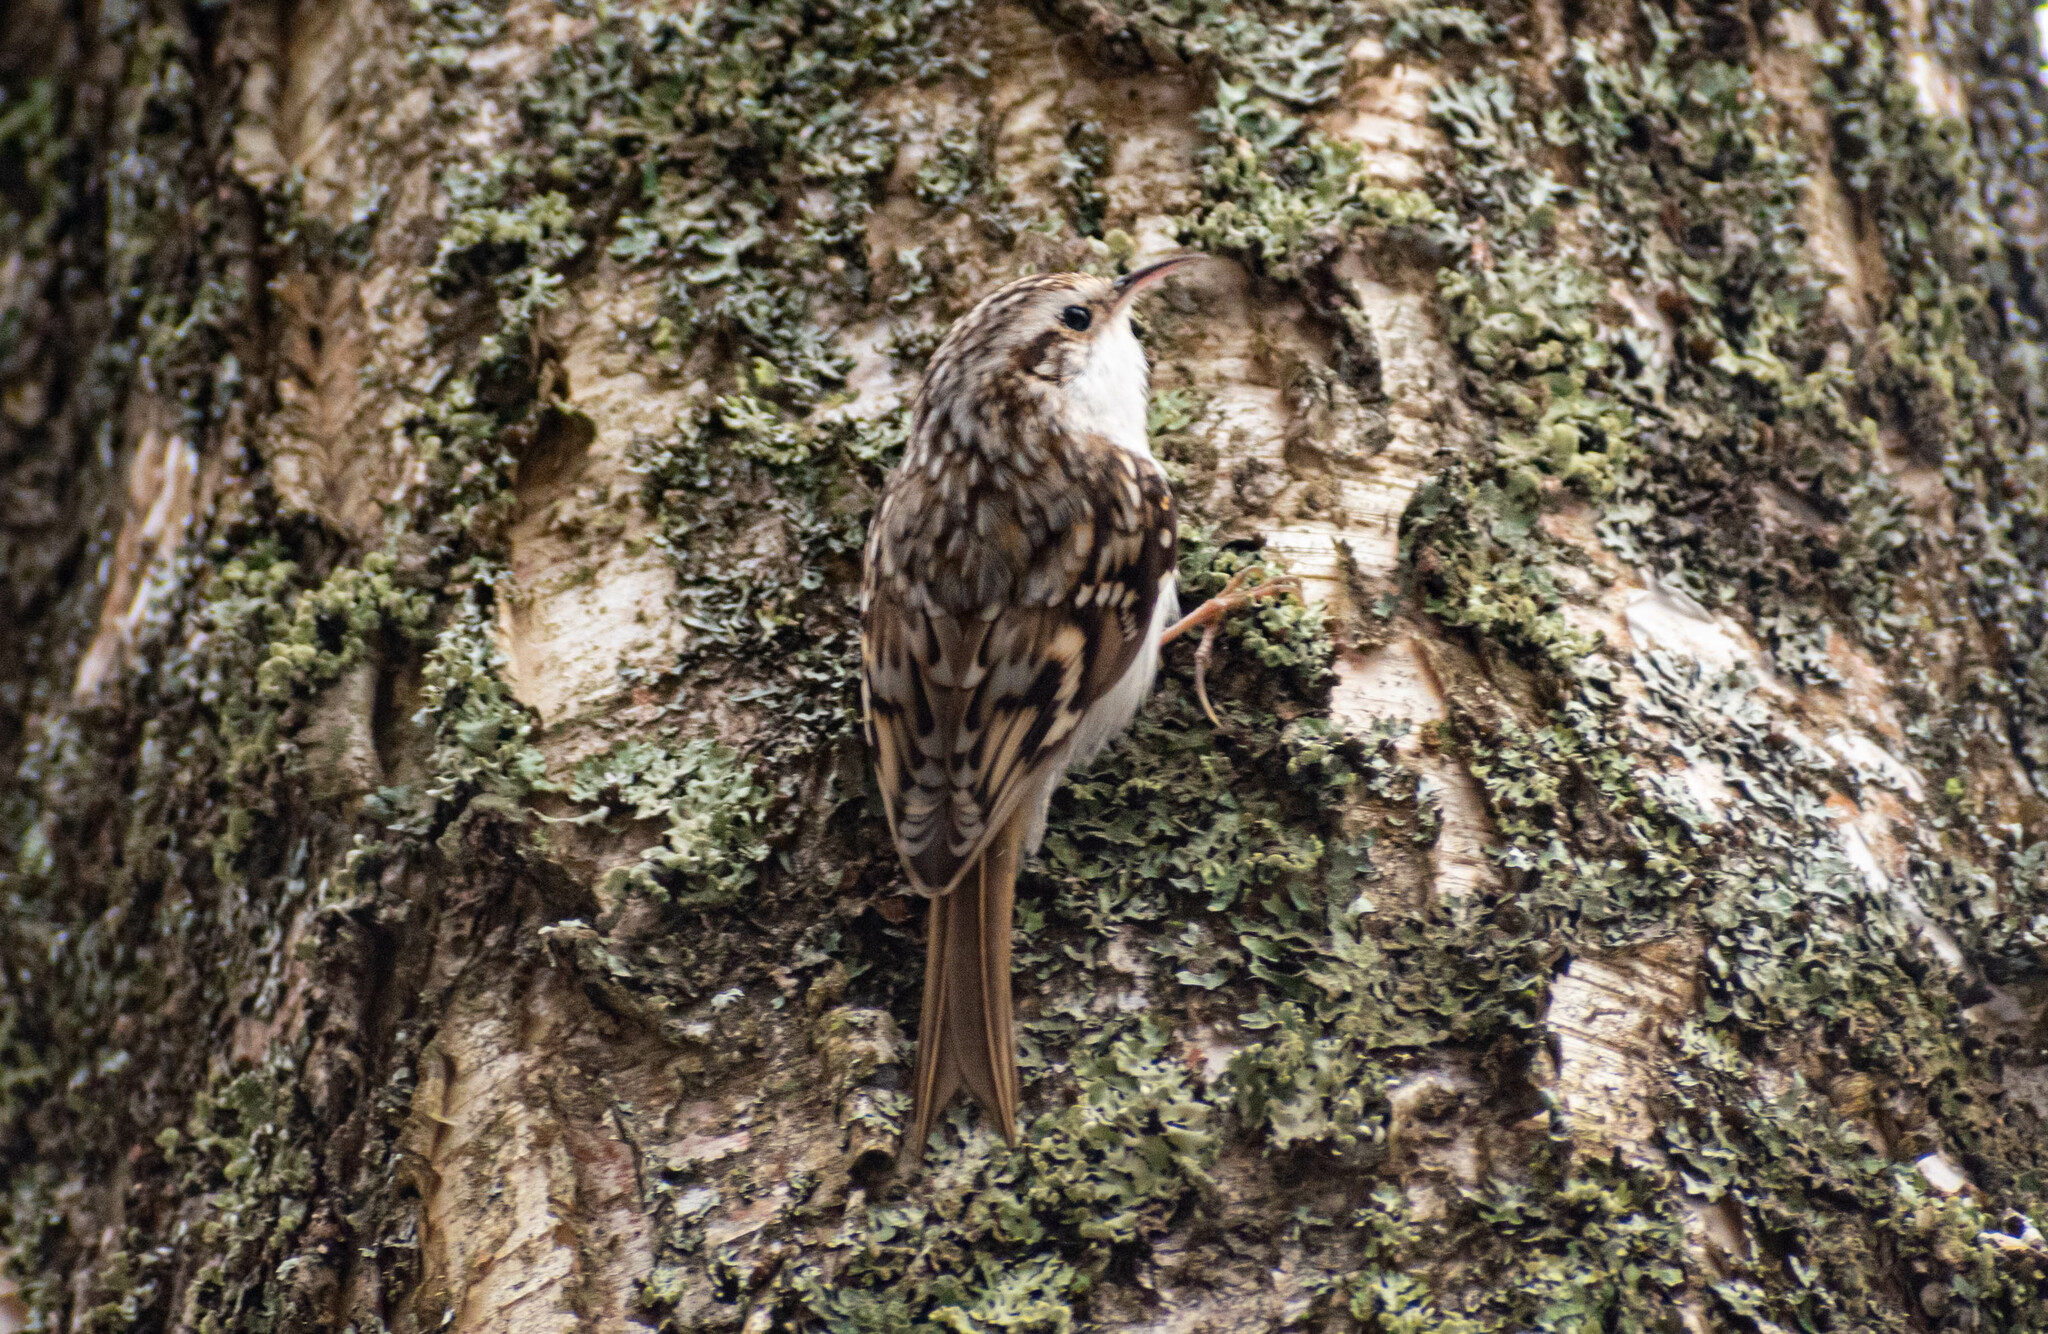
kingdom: Animalia
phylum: Chordata
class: Aves
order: Passeriformes
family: Certhiidae
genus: Certhia
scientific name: Certhia familiaris
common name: Eurasian treecreeper
